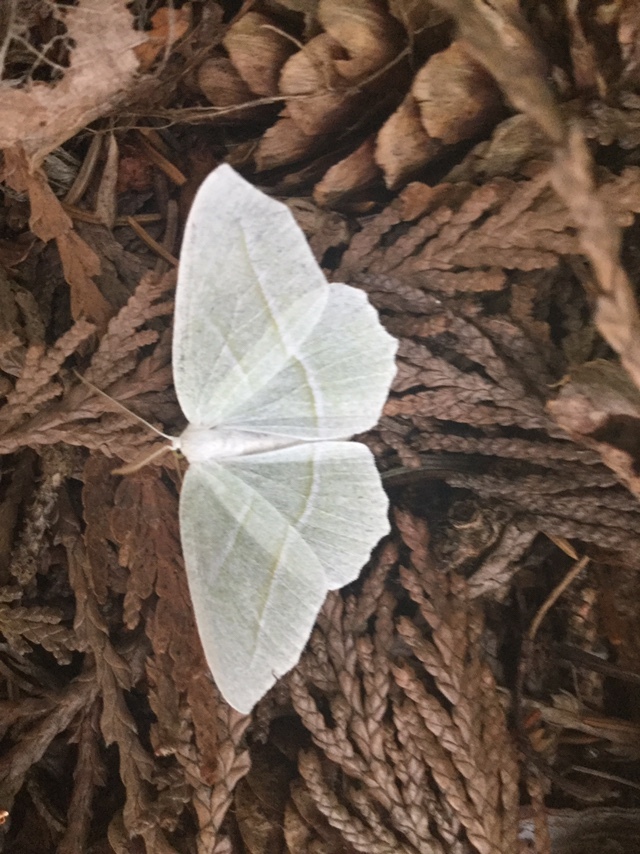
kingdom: Animalia
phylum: Arthropoda
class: Insecta
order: Lepidoptera
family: Geometridae
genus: Campaea
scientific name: Campaea perlata
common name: Fringed looper
